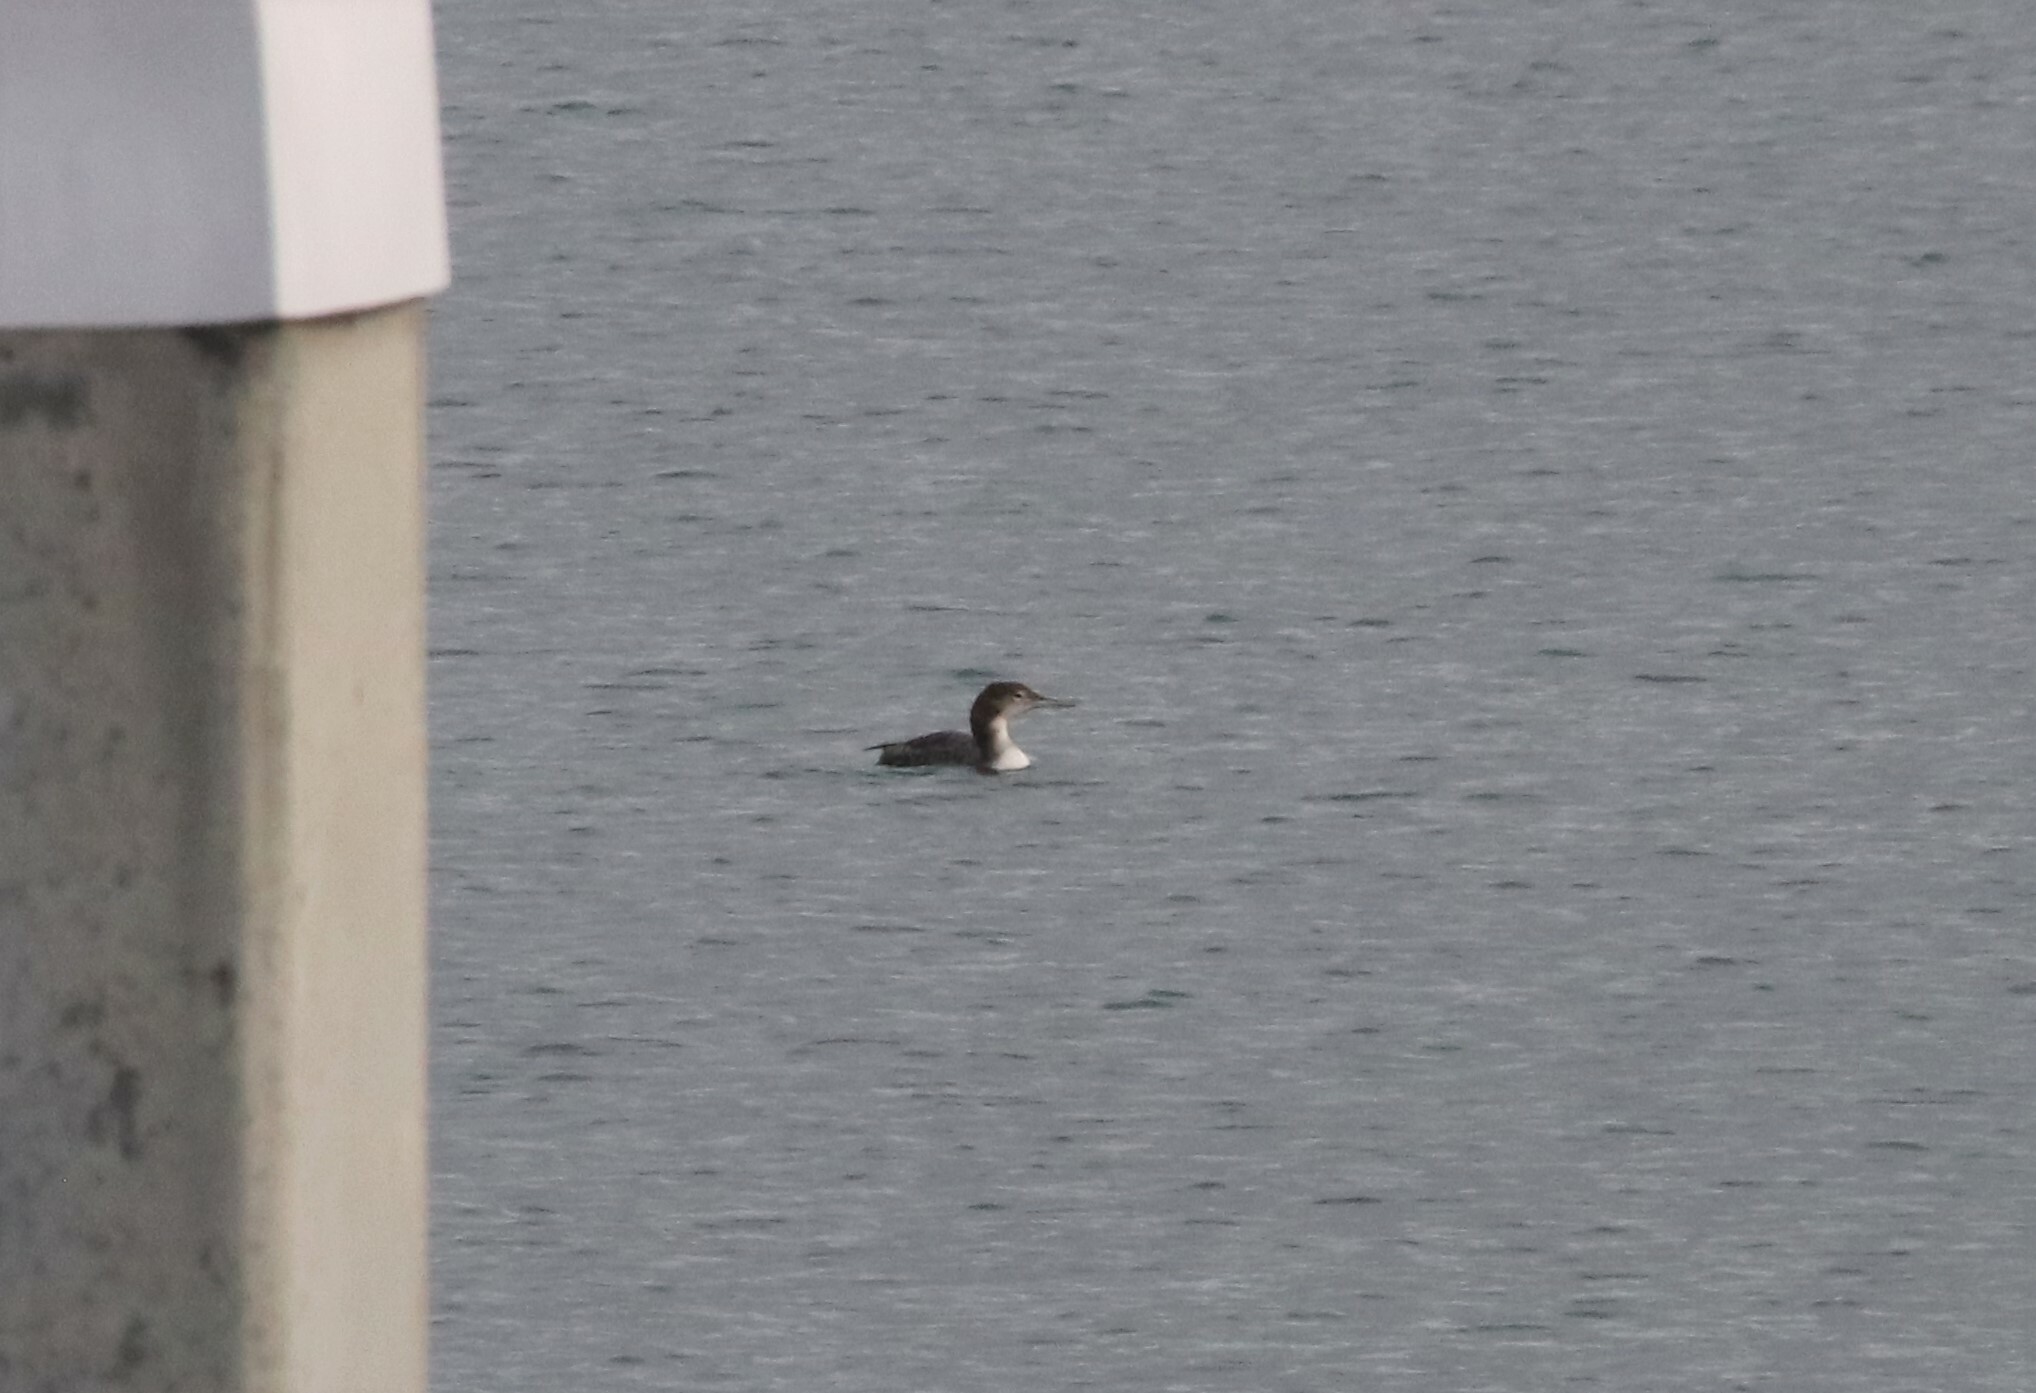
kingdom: Animalia
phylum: Chordata
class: Aves
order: Gaviiformes
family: Gaviidae
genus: Gavia
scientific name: Gavia immer
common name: Common loon
